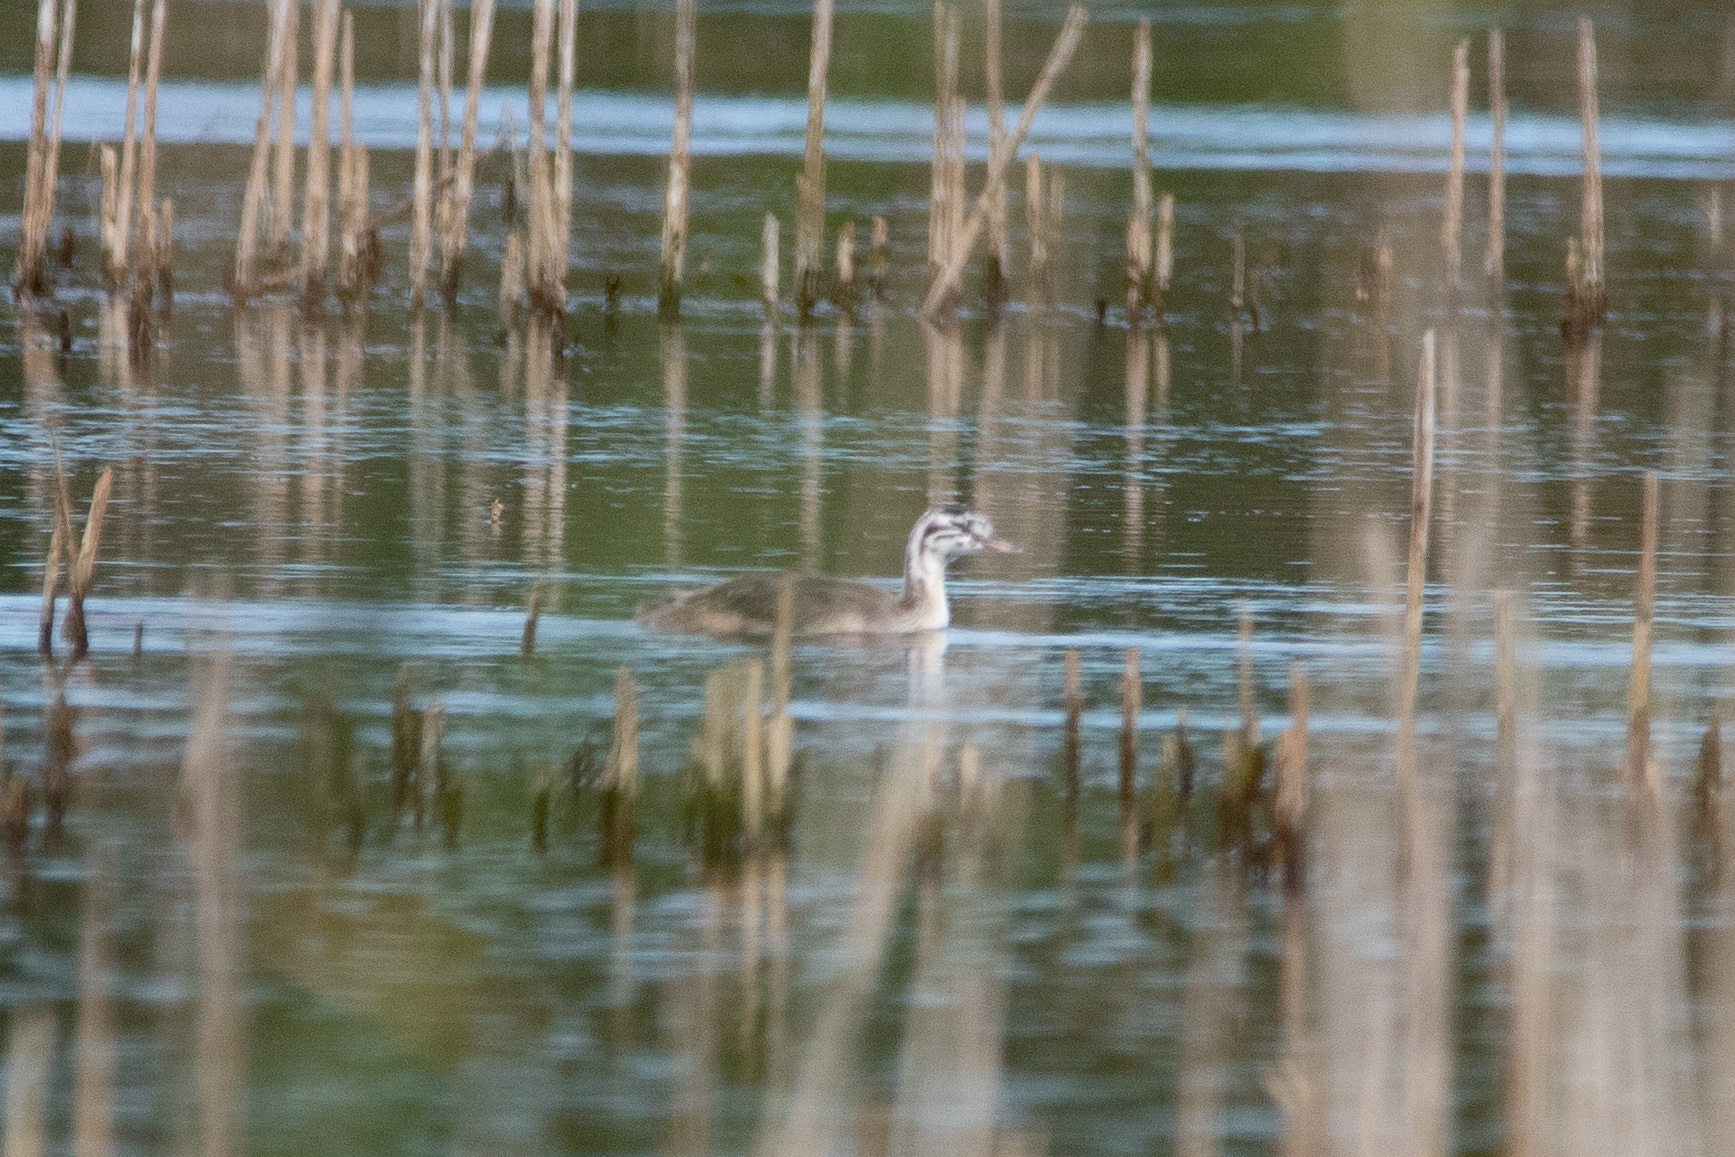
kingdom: Animalia
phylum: Chordata
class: Aves
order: Podicipediformes
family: Podicipedidae
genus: Podiceps
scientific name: Podiceps cristatus
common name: Great crested grebe
